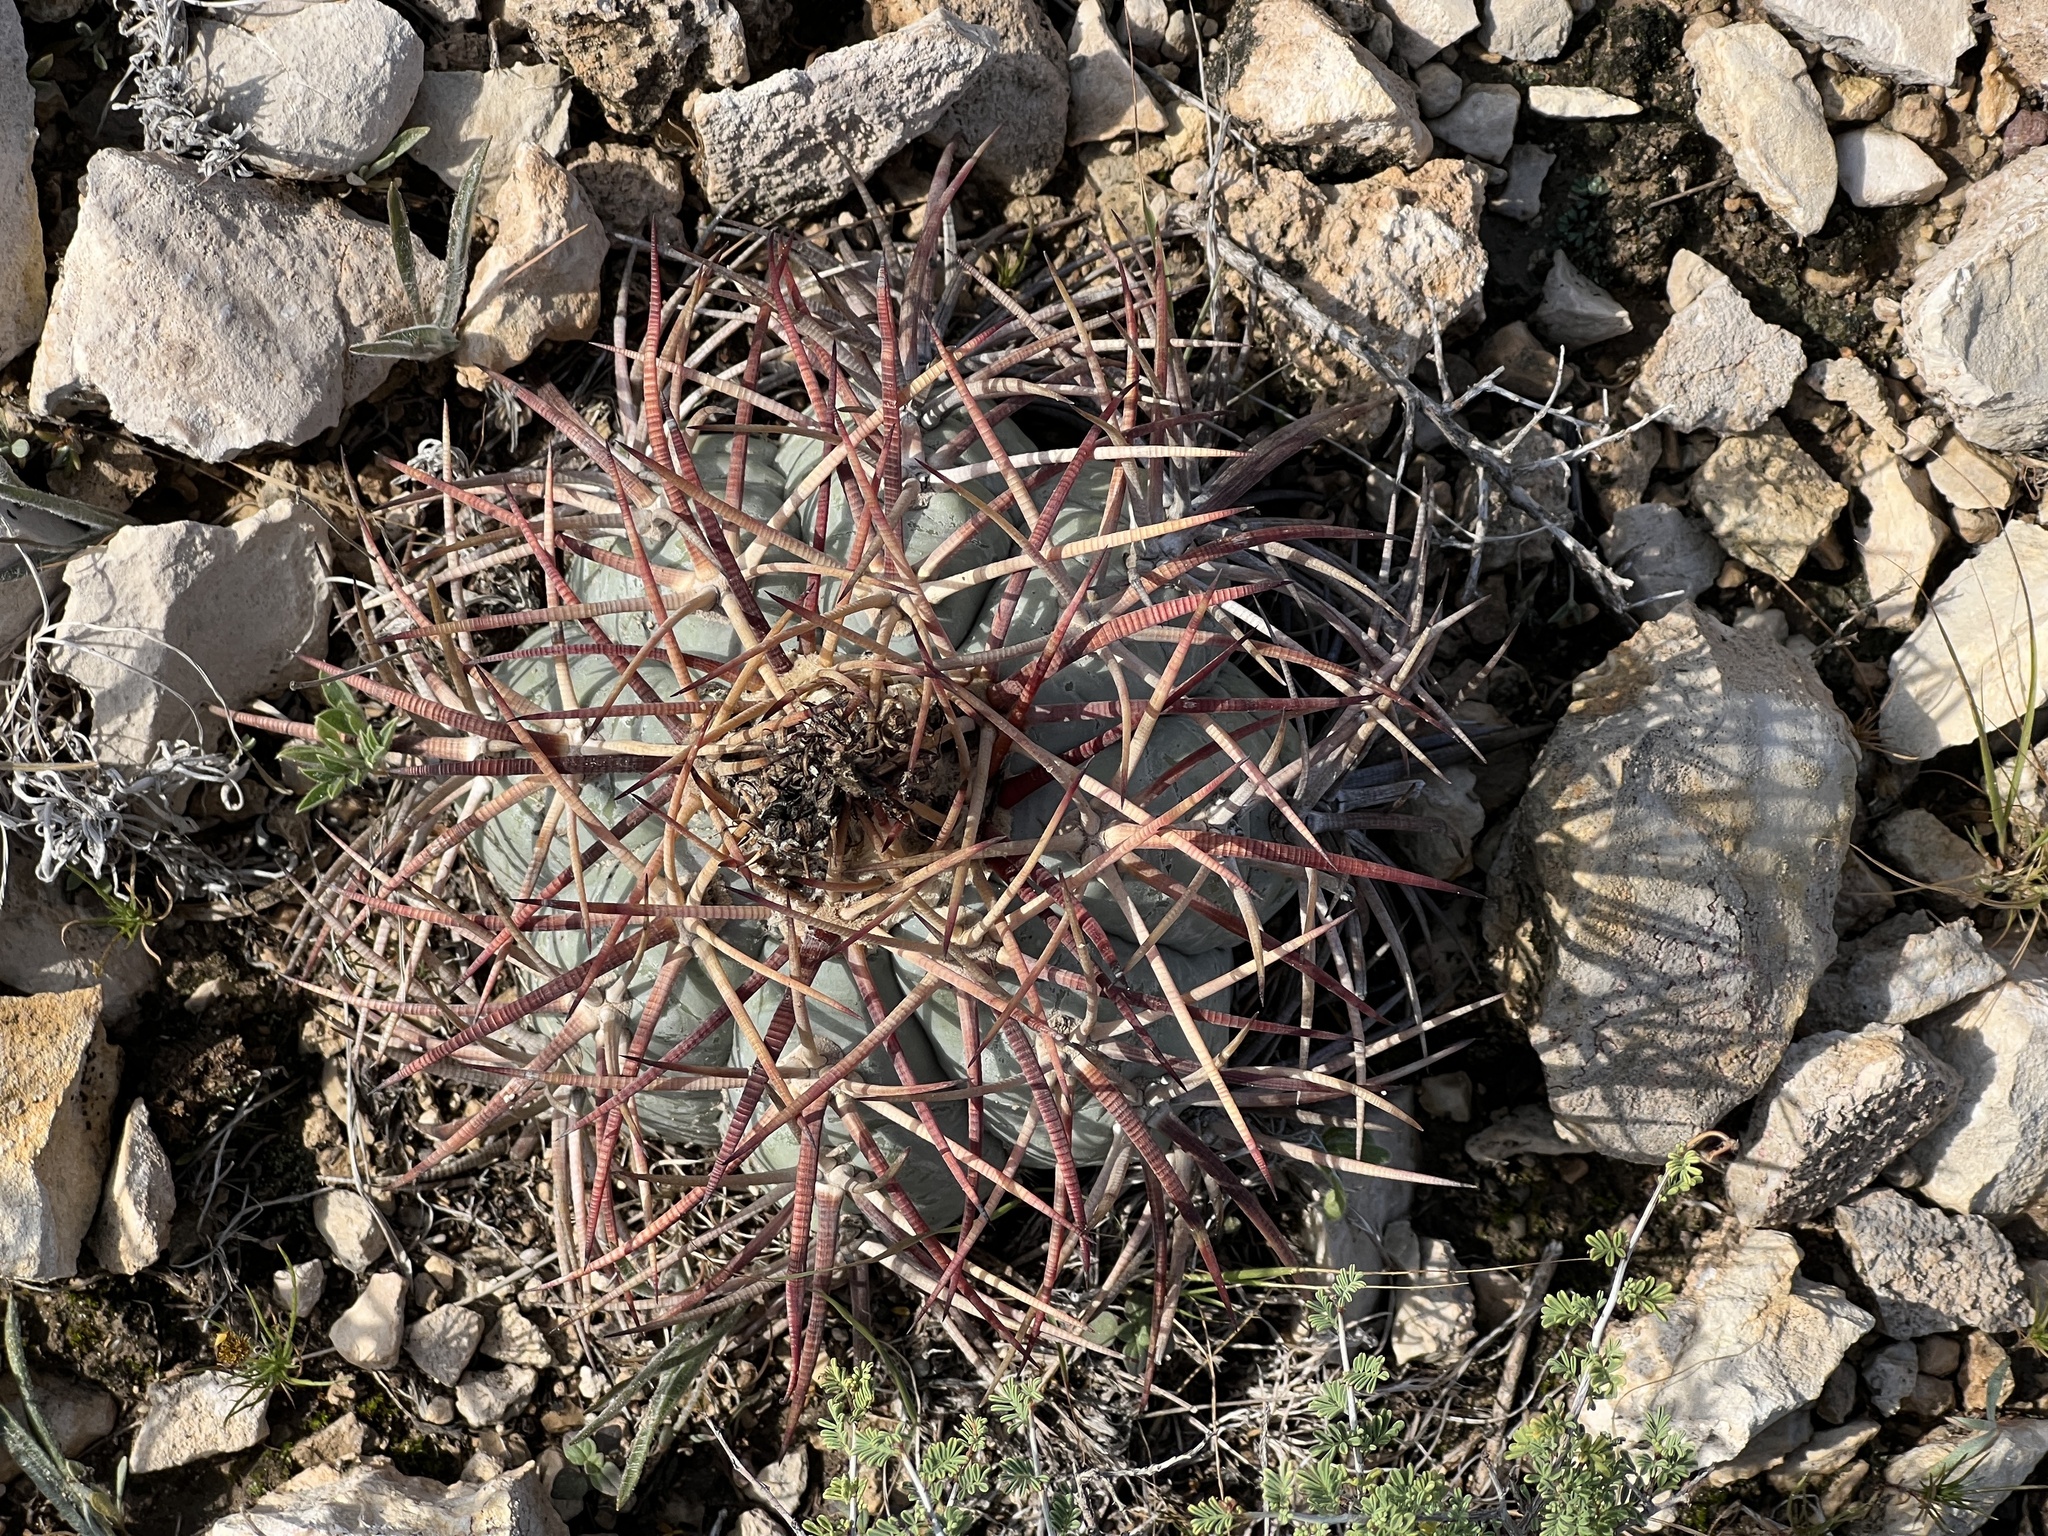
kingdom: Plantae
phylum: Tracheophyta
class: Magnoliopsida
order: Caryophyllales
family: Cactaceae
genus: Echinocactus
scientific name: Echinocactus horizonthalonius
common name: Devilshead
